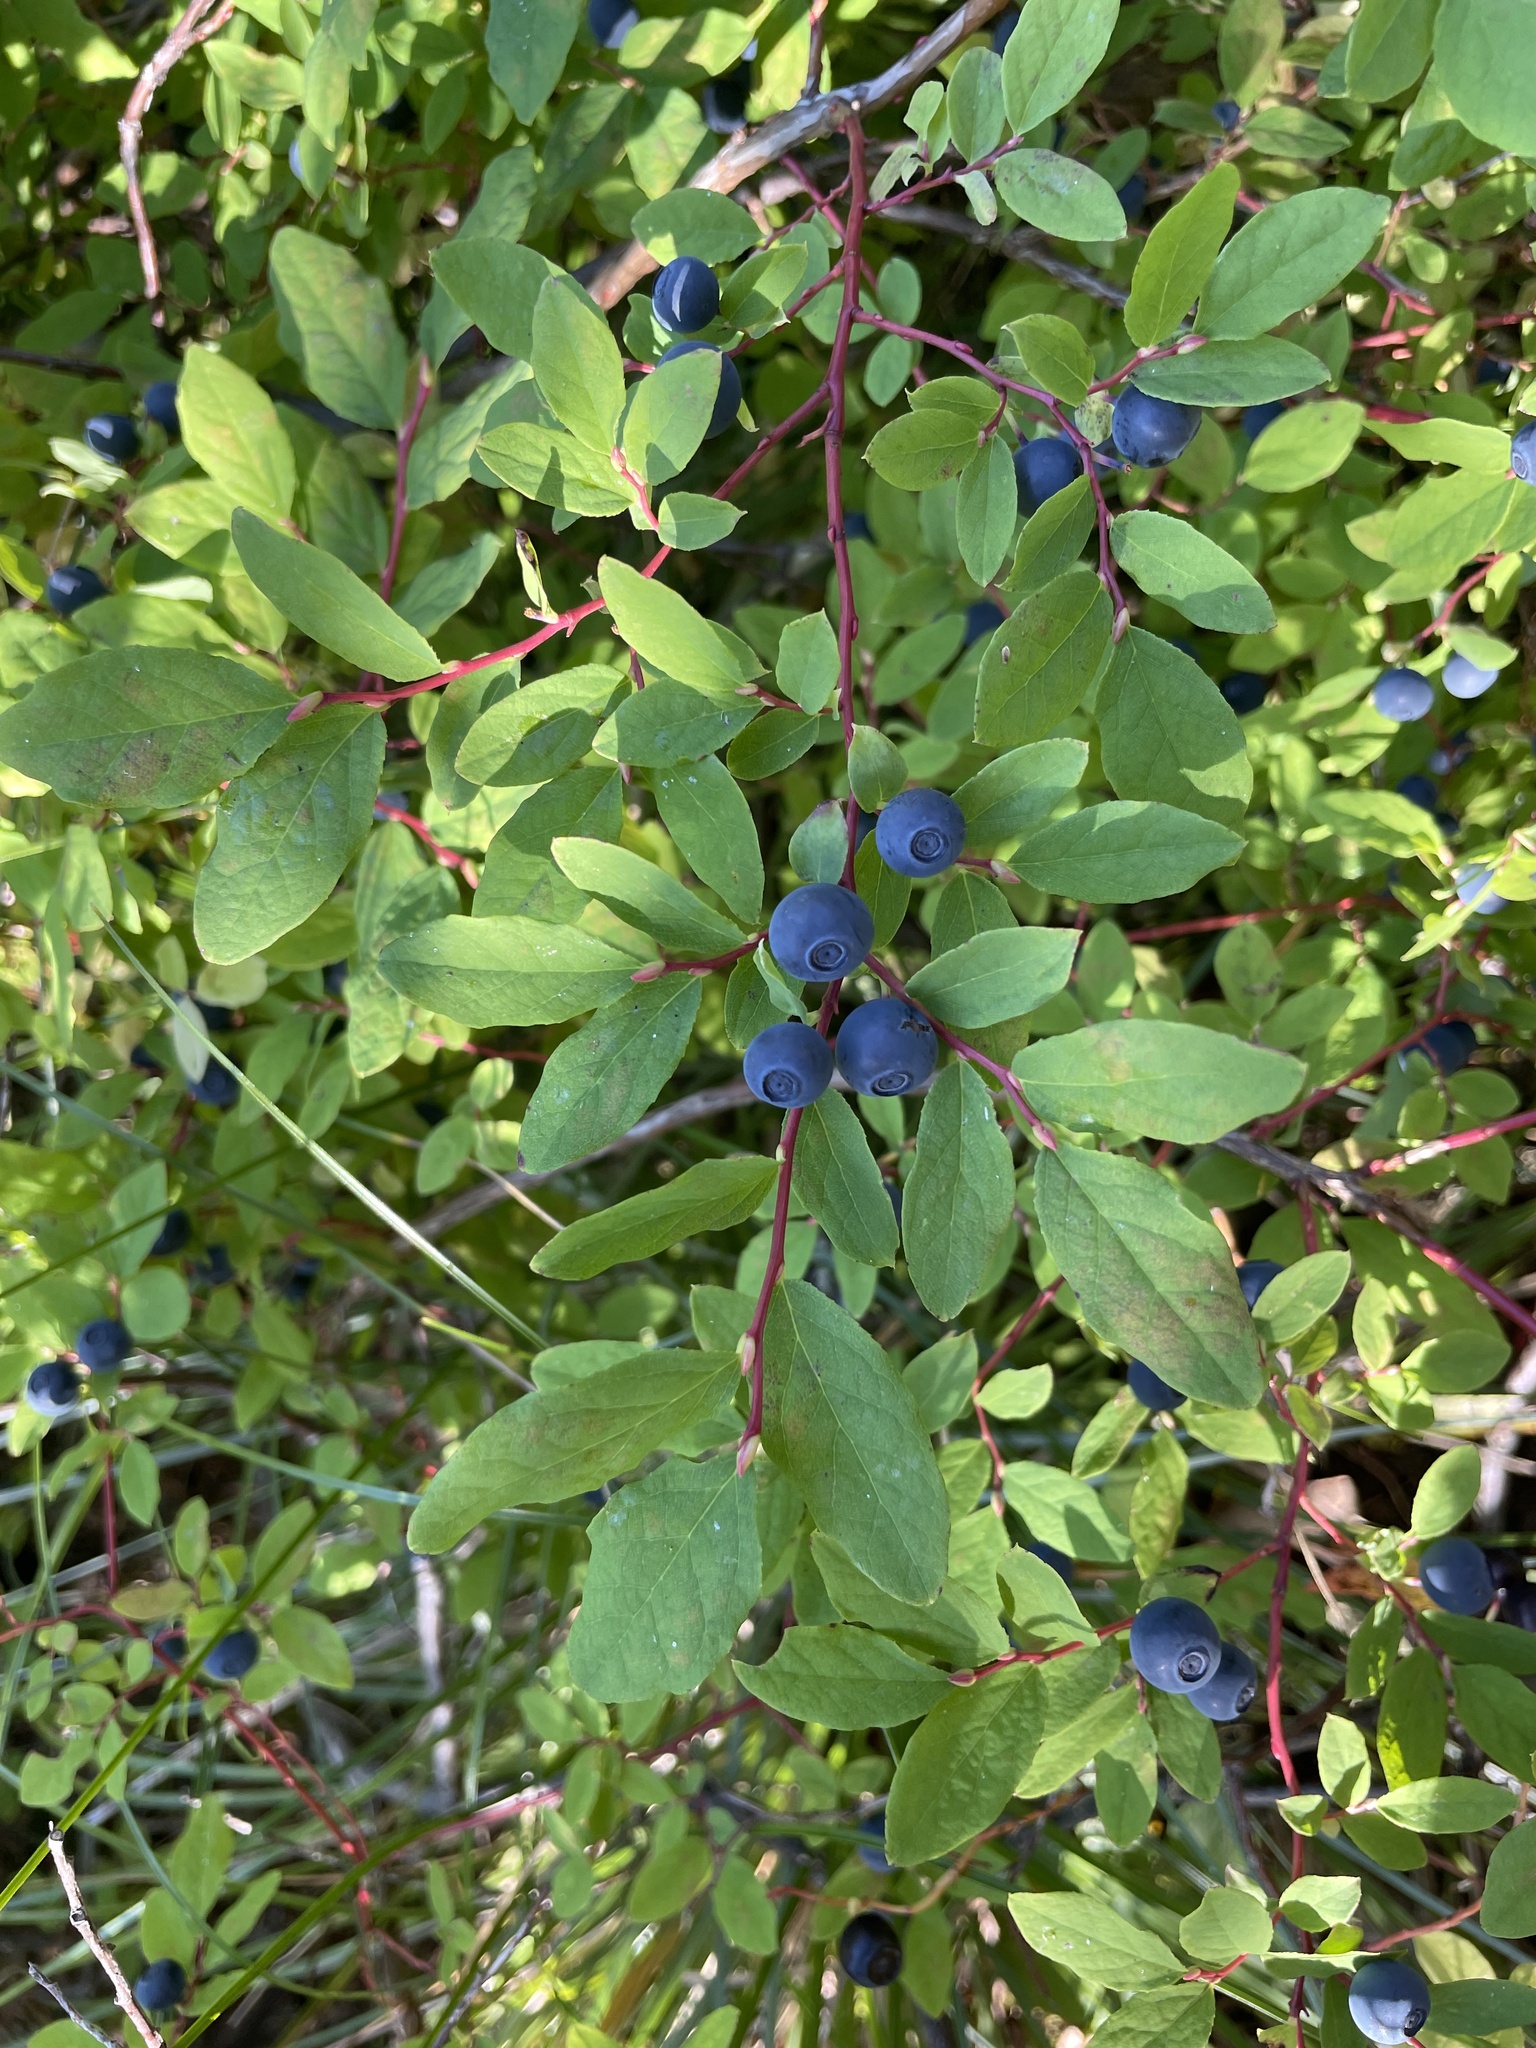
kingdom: Plantae
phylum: Tracheophyta
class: Magnoliopsida
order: Ericales
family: Ericaceae
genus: Vaccinium
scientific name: Vaccinium ovalifolium
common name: Early blueberry
